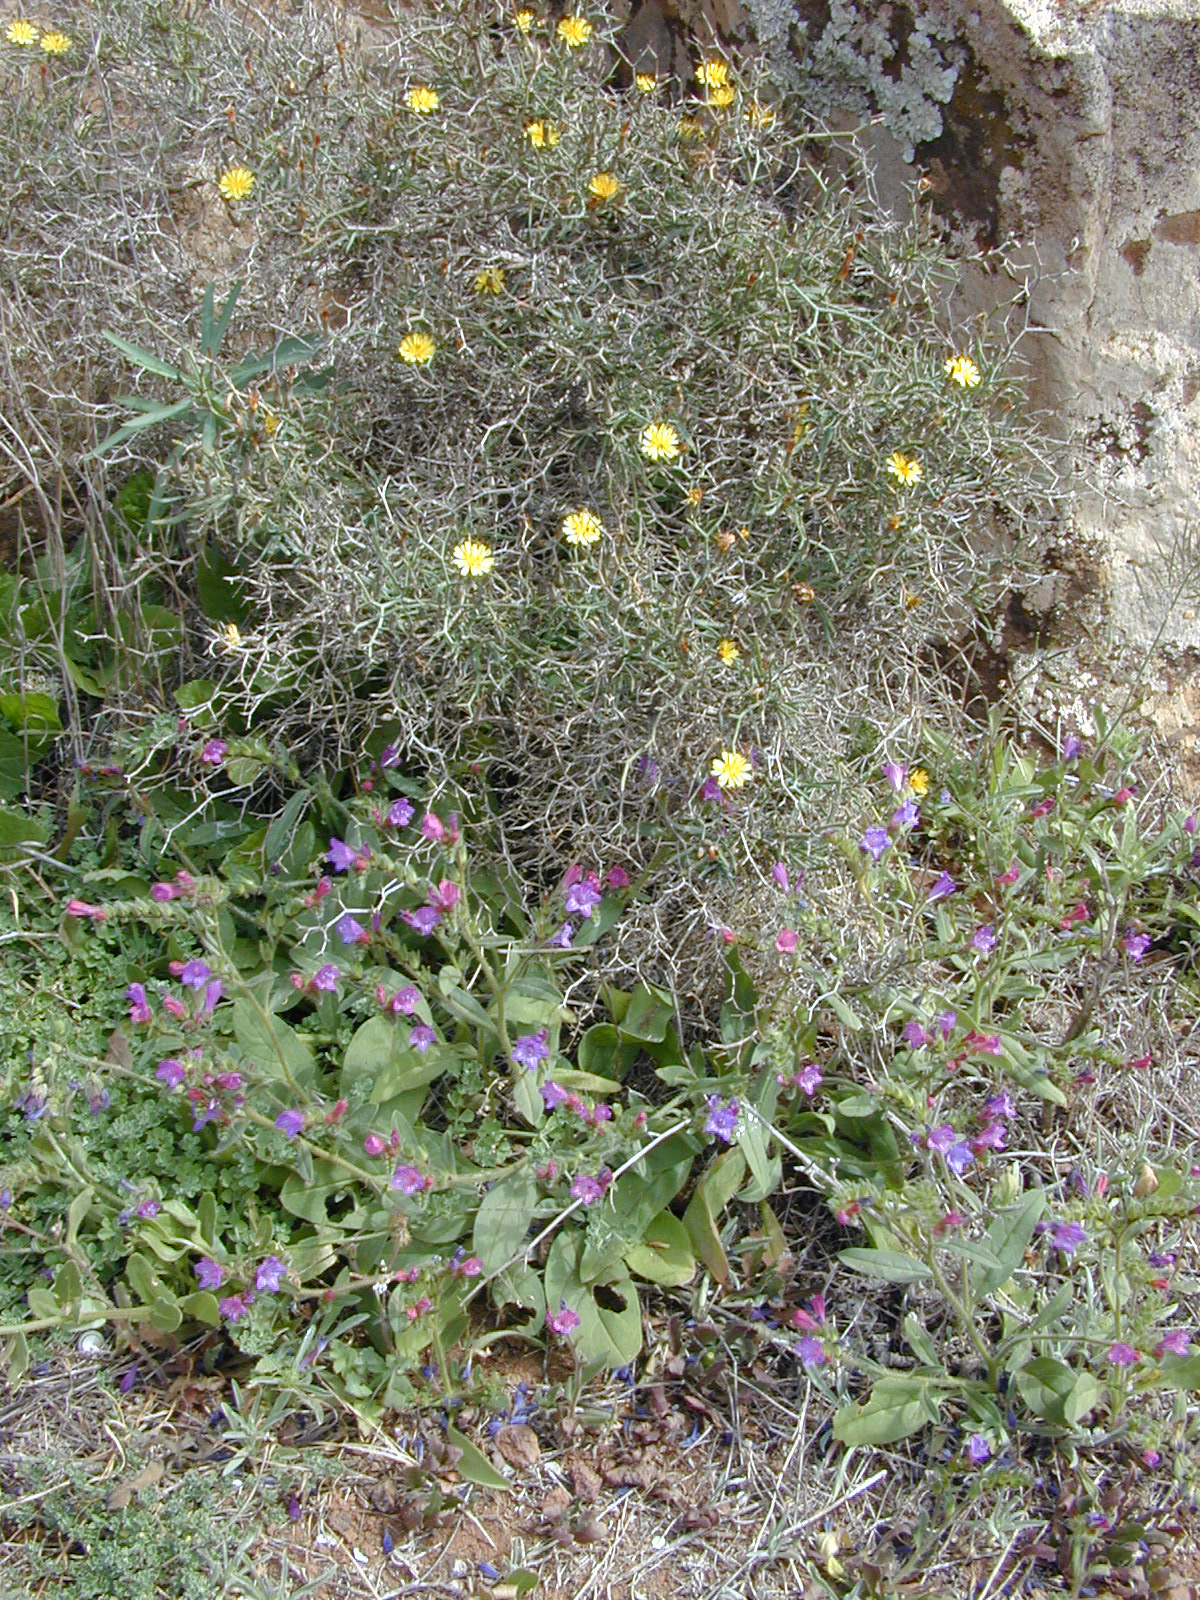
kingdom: Plantae
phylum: Tracheophyta
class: Magnoliopsida
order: Asterales
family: Asteraceae
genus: Launaea
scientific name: Launaea arborescens
